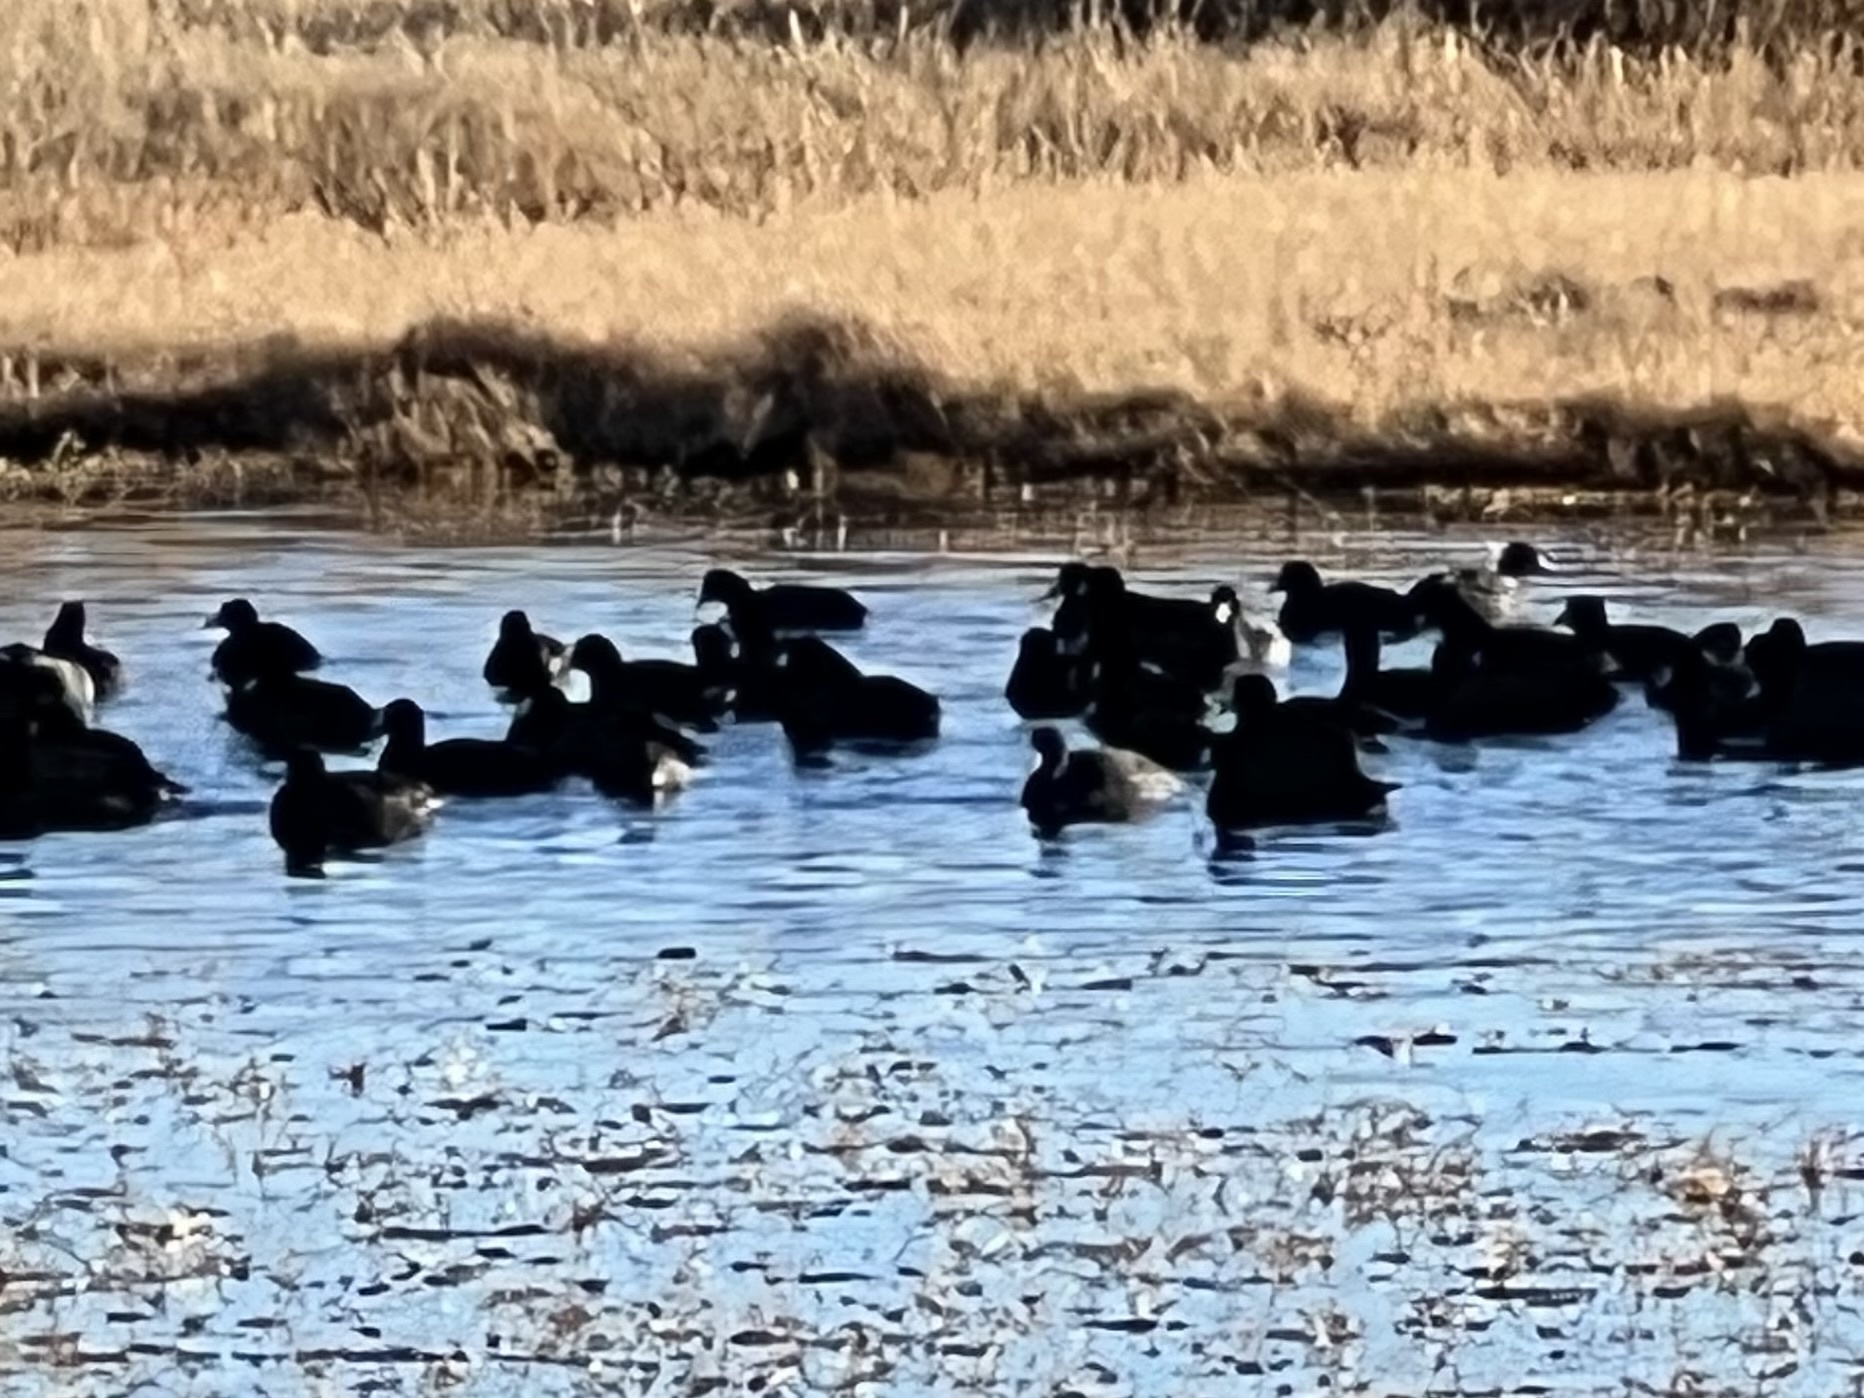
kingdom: Animalia
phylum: Chordata
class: Aves
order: Gruiformes
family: Rallidae
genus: Fulica
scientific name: Fulica americana
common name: American coot
